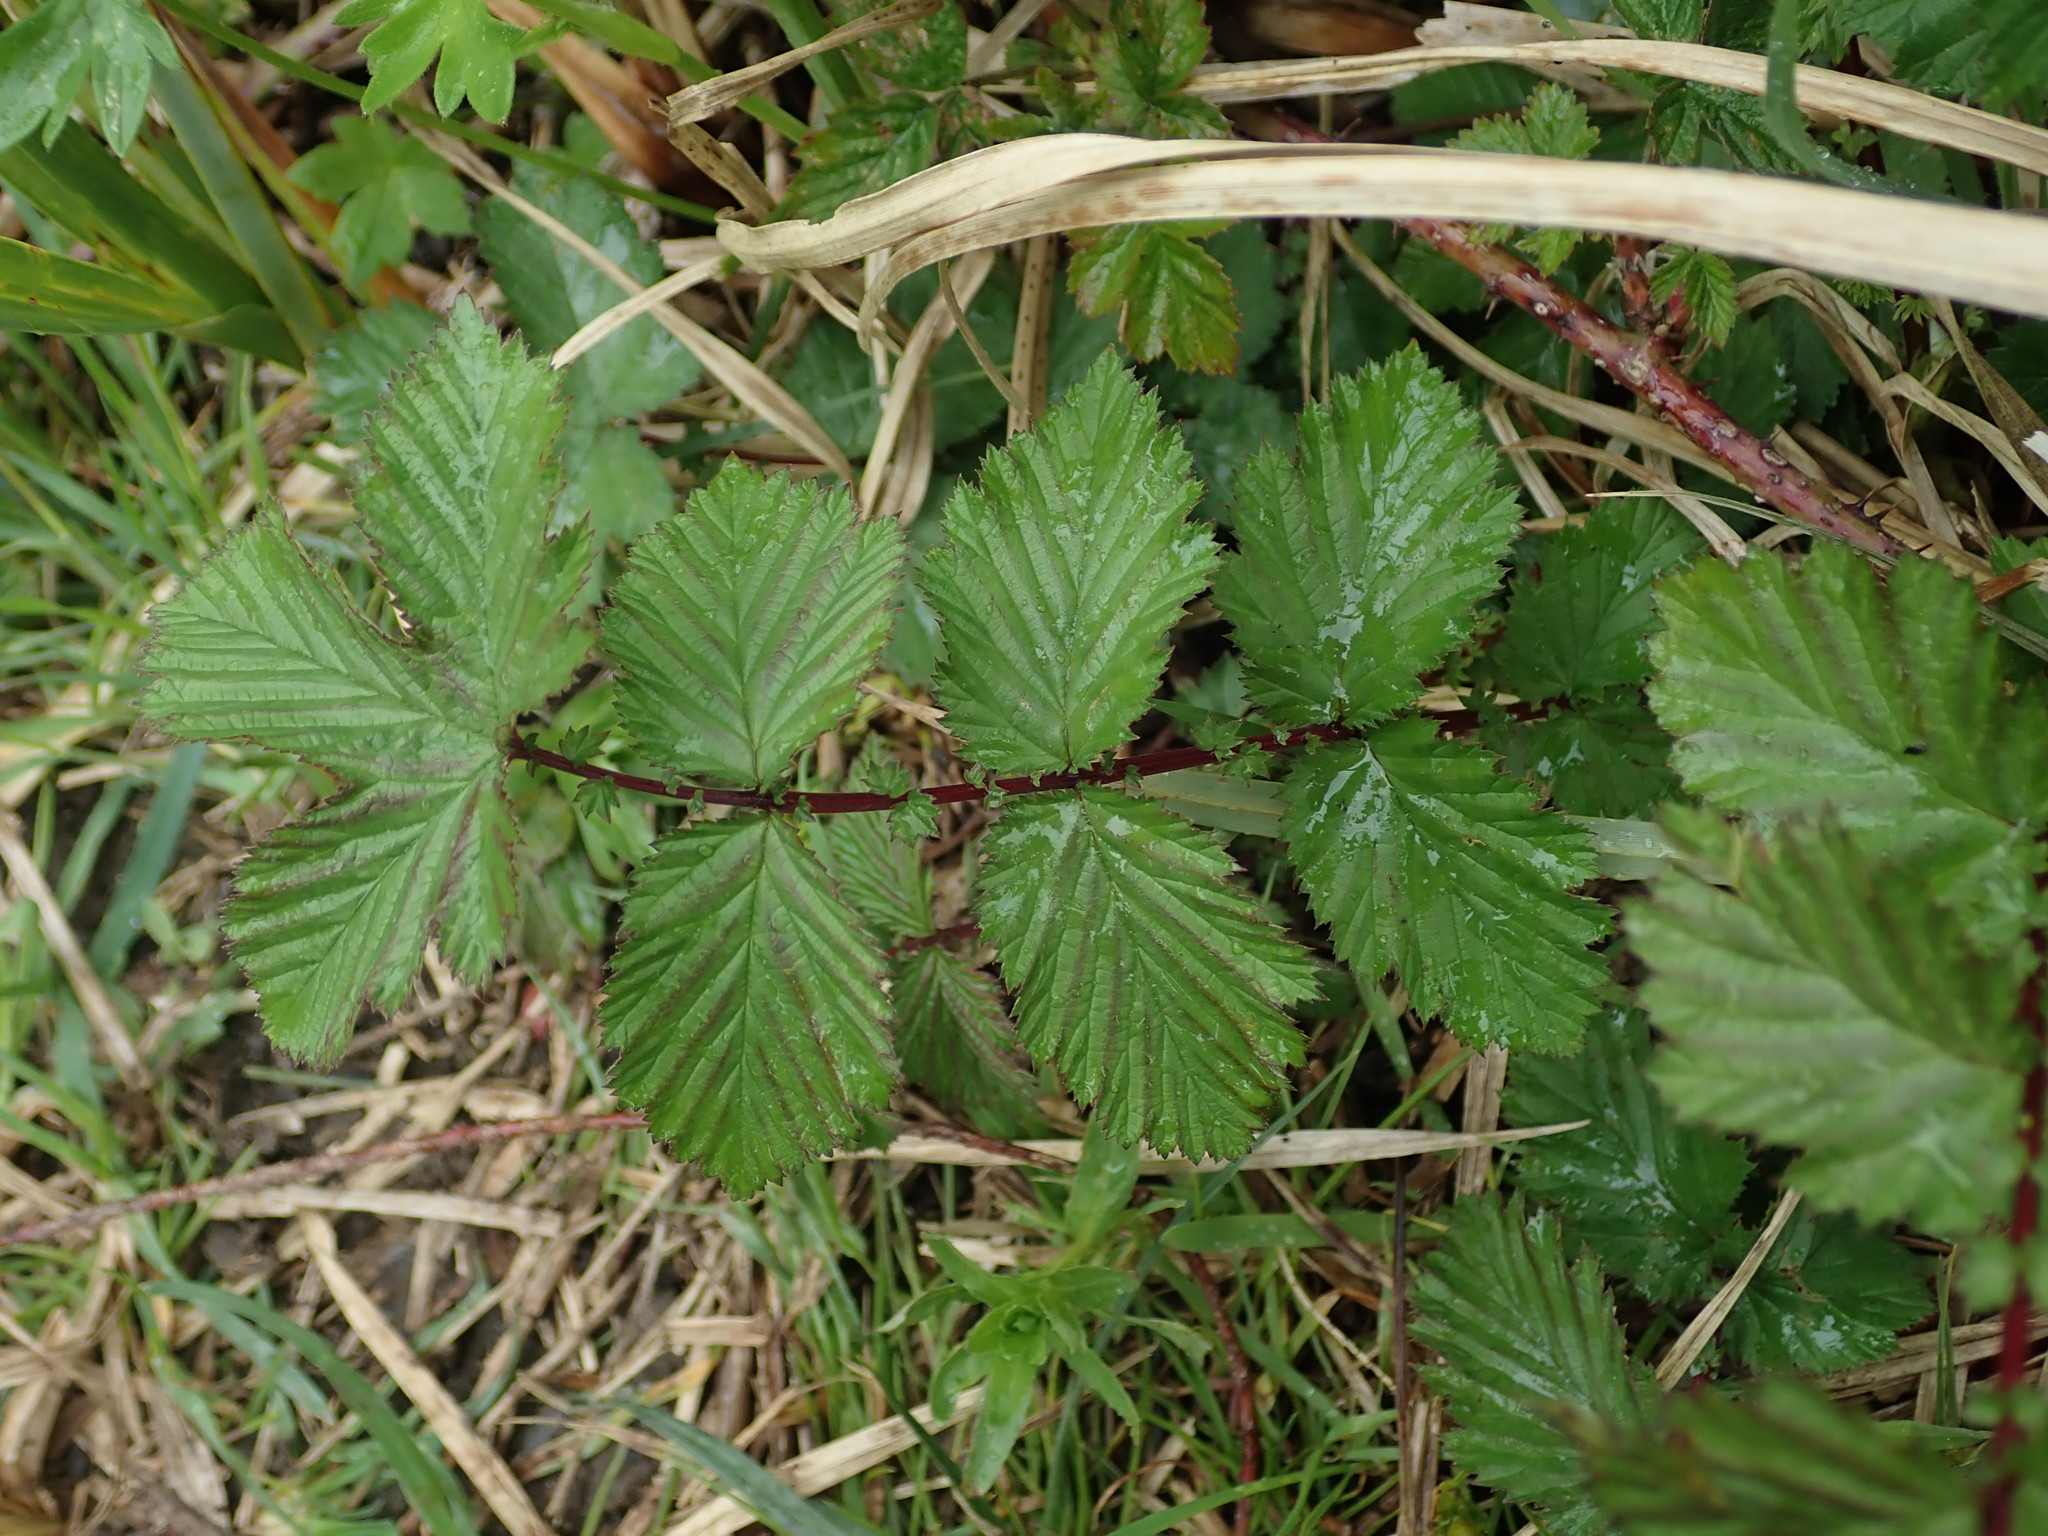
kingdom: Plantae
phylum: Tracheophyta
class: Magnoliopsida
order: Rosales
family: Rosaceae
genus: Filipendula
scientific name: Filipendula ulmaria
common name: Meadowsweet
